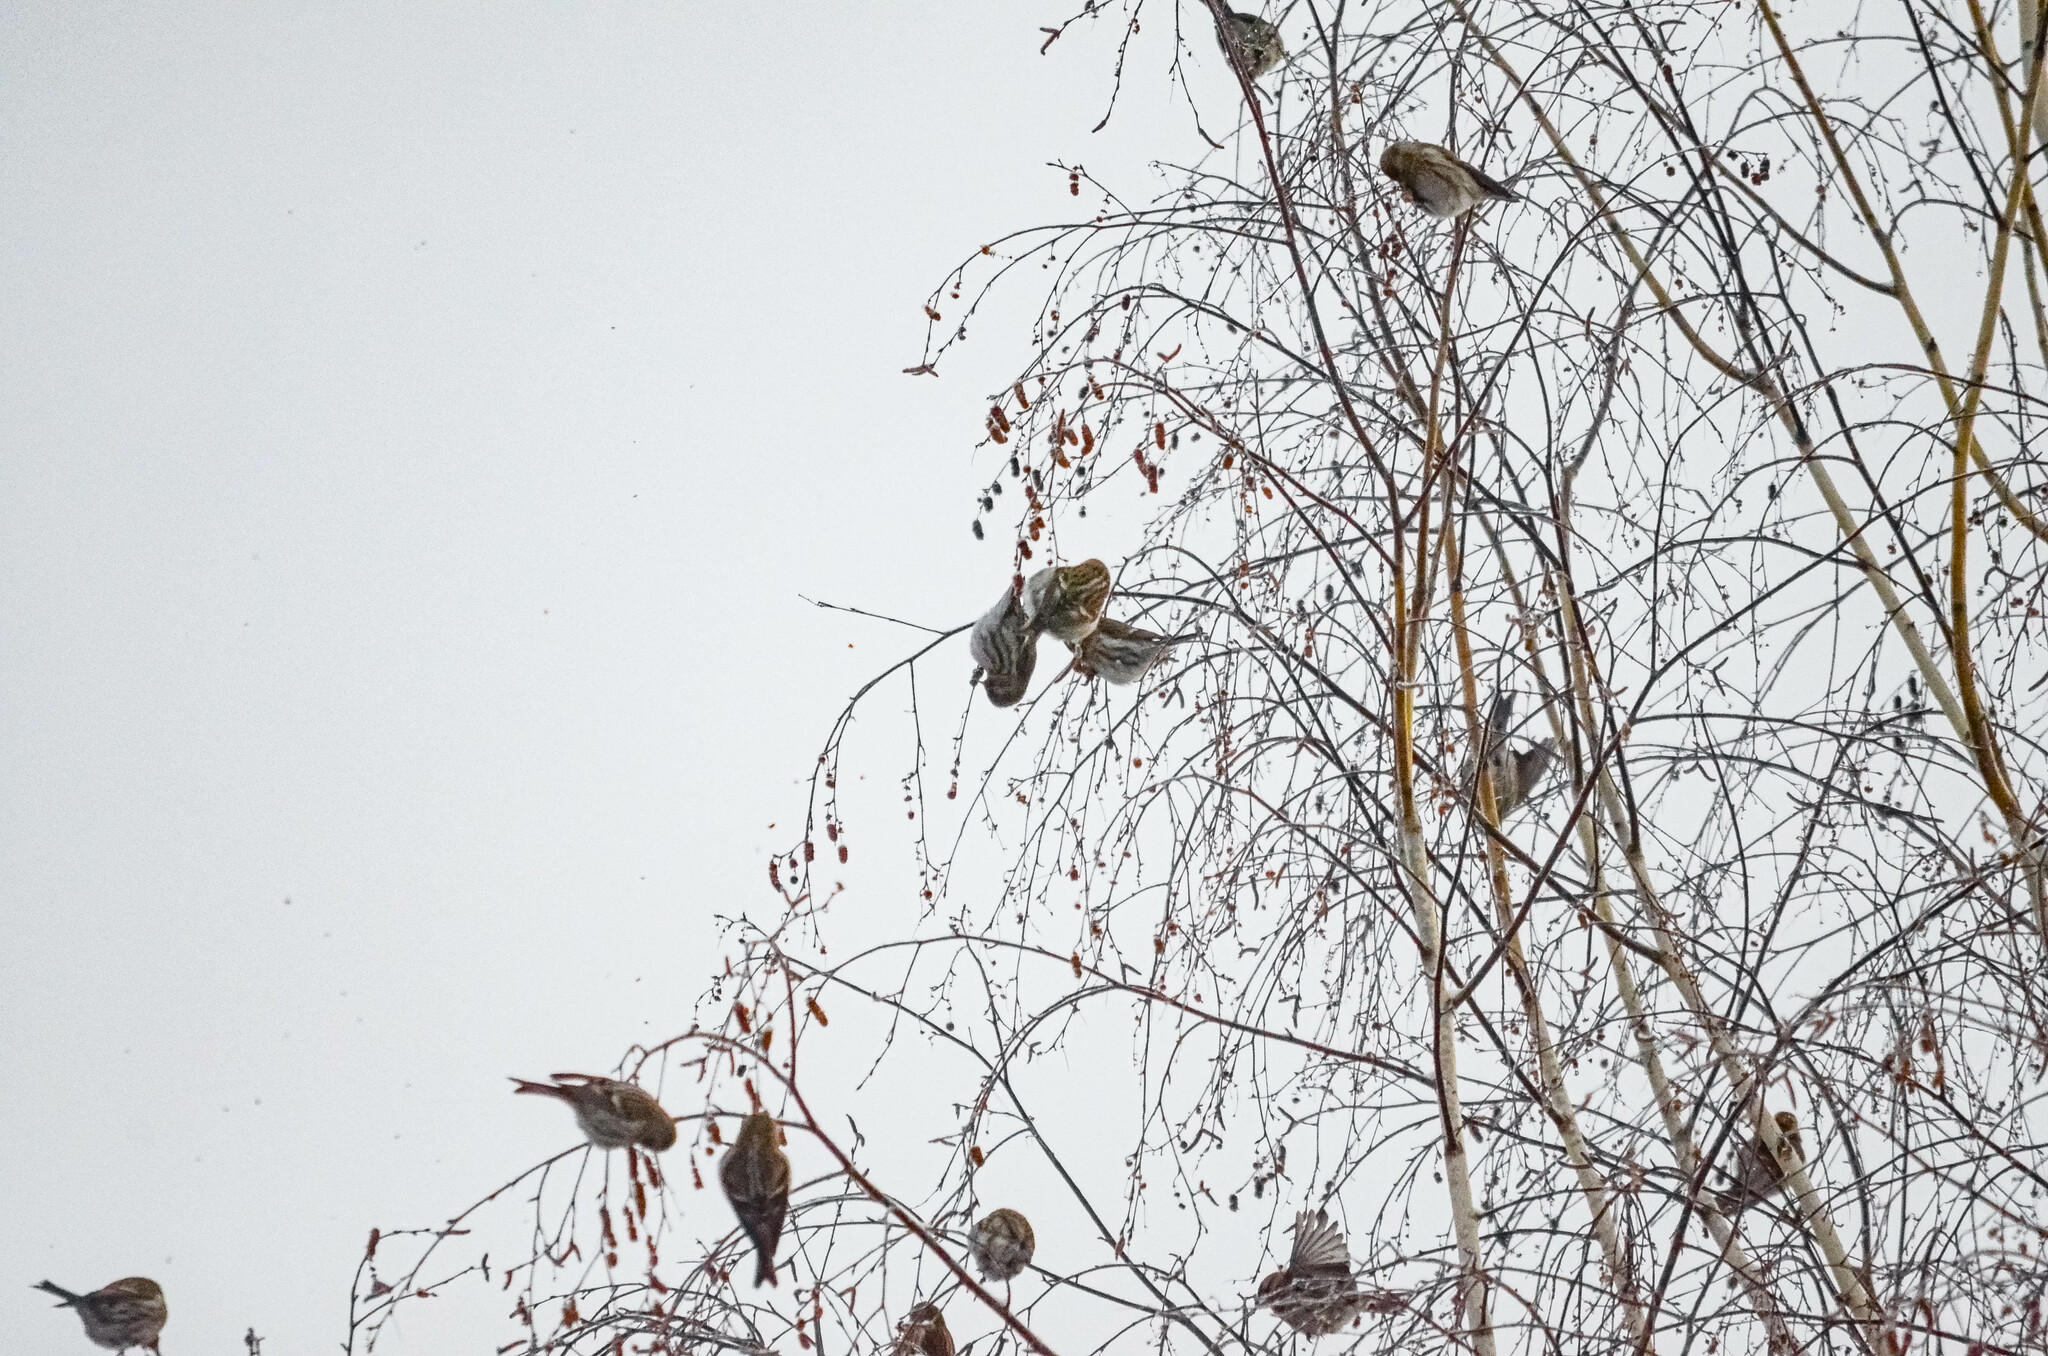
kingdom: Animalia
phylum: Chordata
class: Aves
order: Passeriformes
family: Fringillidae
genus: Acanthis
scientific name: Acanthis flammea
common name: Common redpoll
